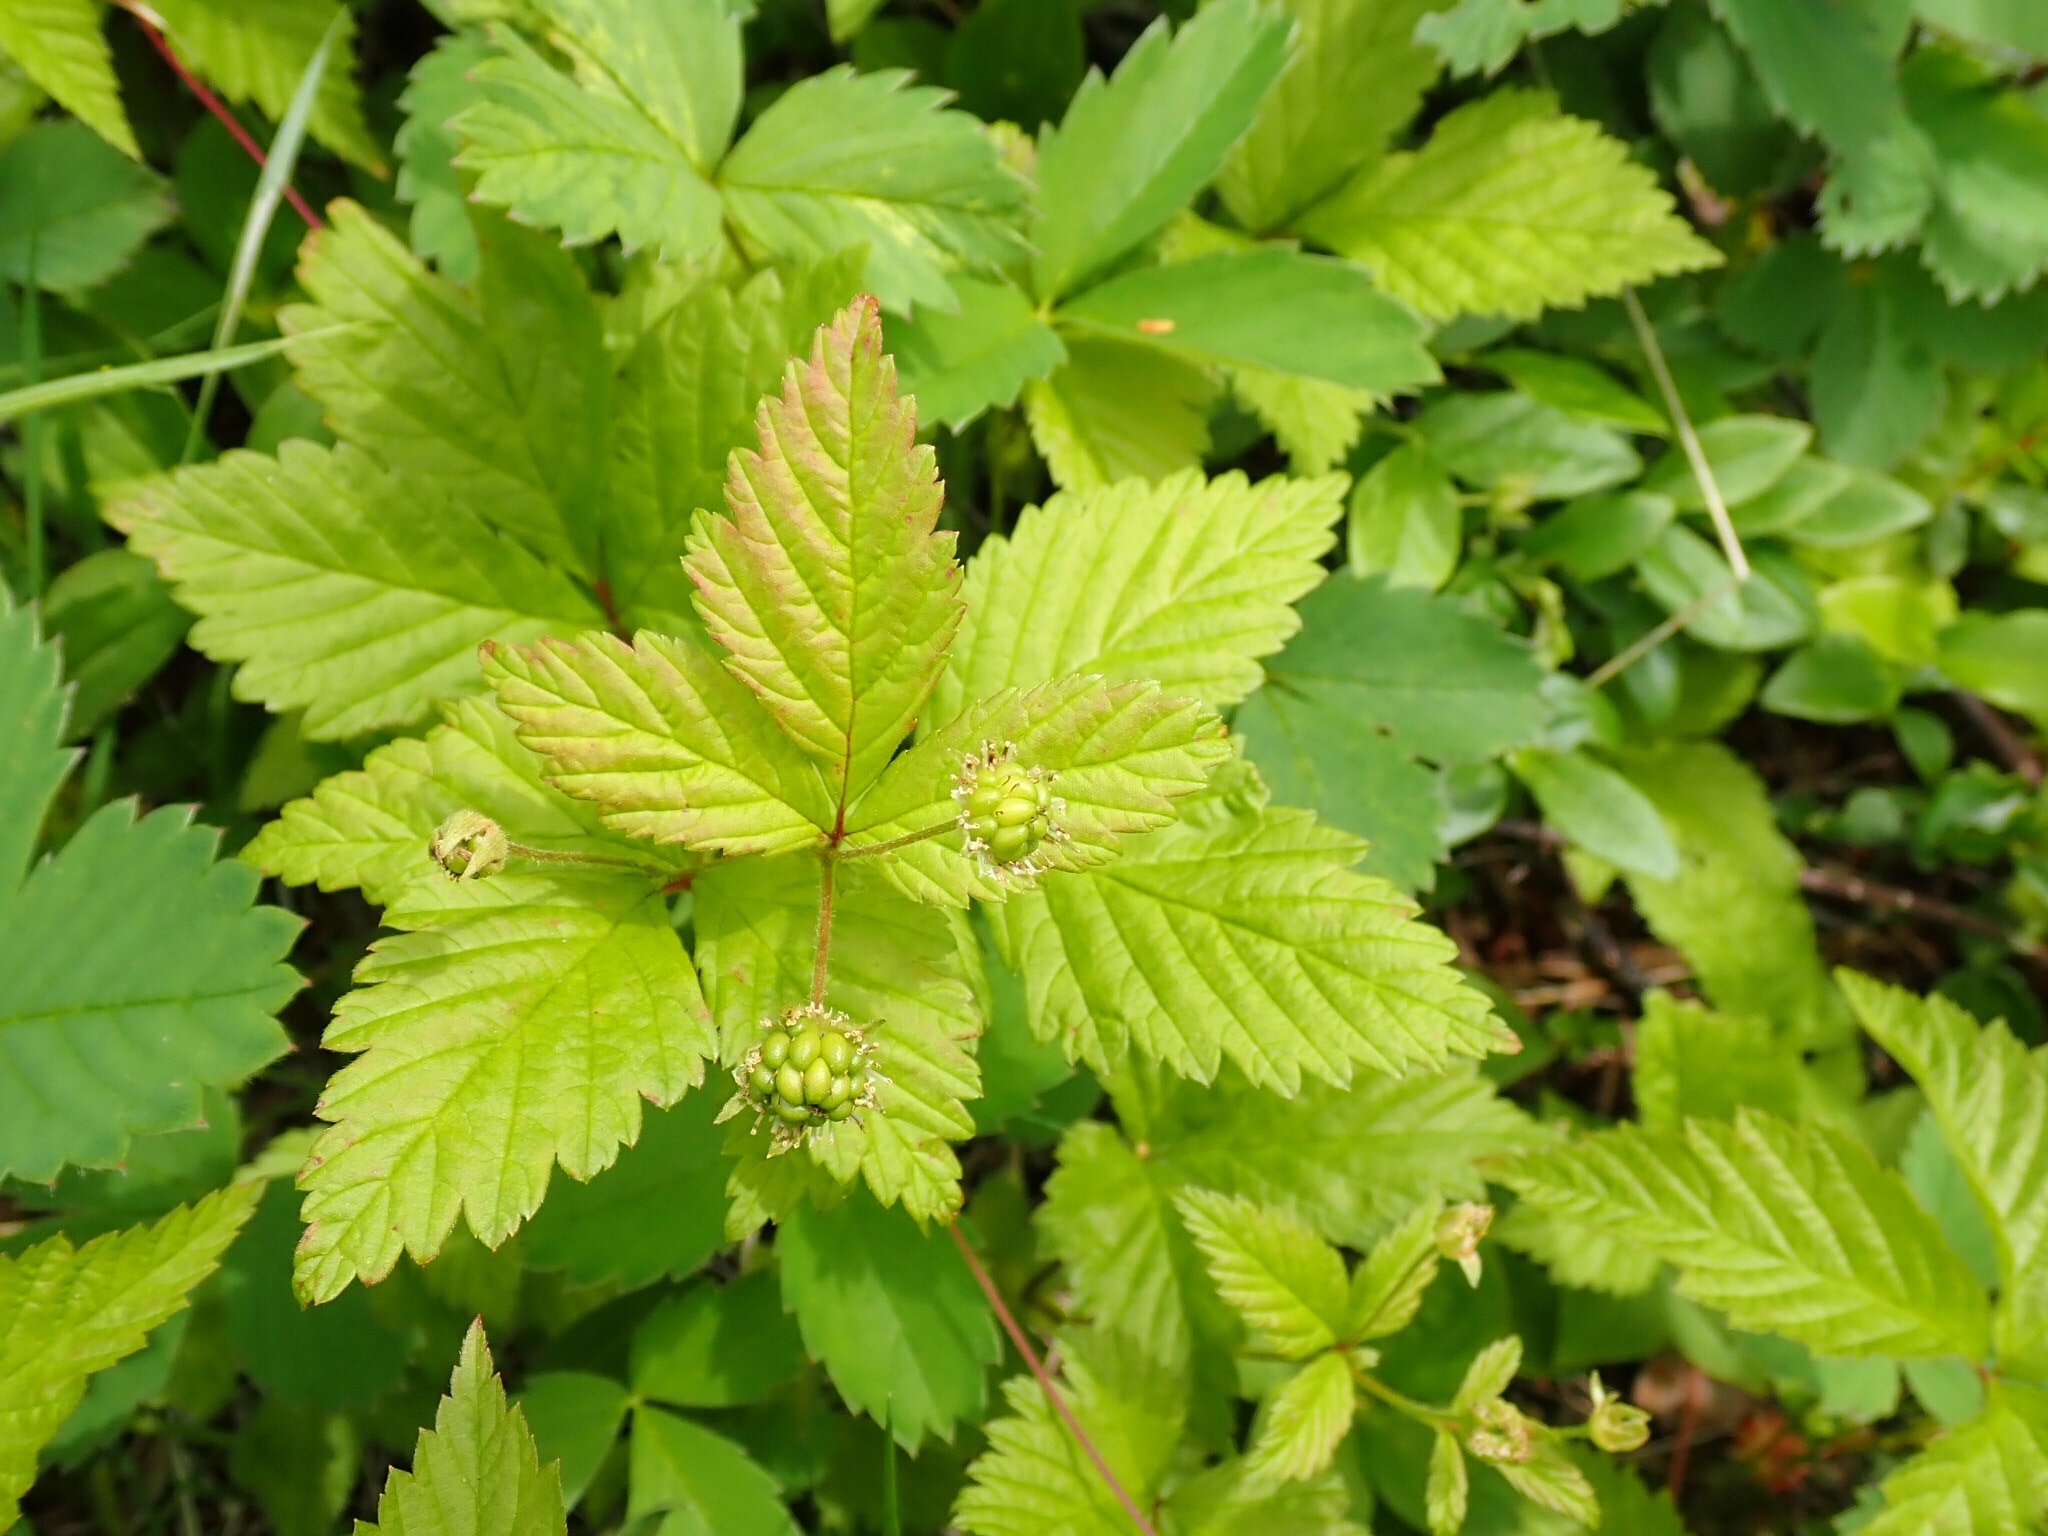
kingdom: Plantae
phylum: Tracheophyta
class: Magnoliopsida
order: Rosales
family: Rosaceae
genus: Rubus
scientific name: Rubus pubescens
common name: Dwarf raspberry
